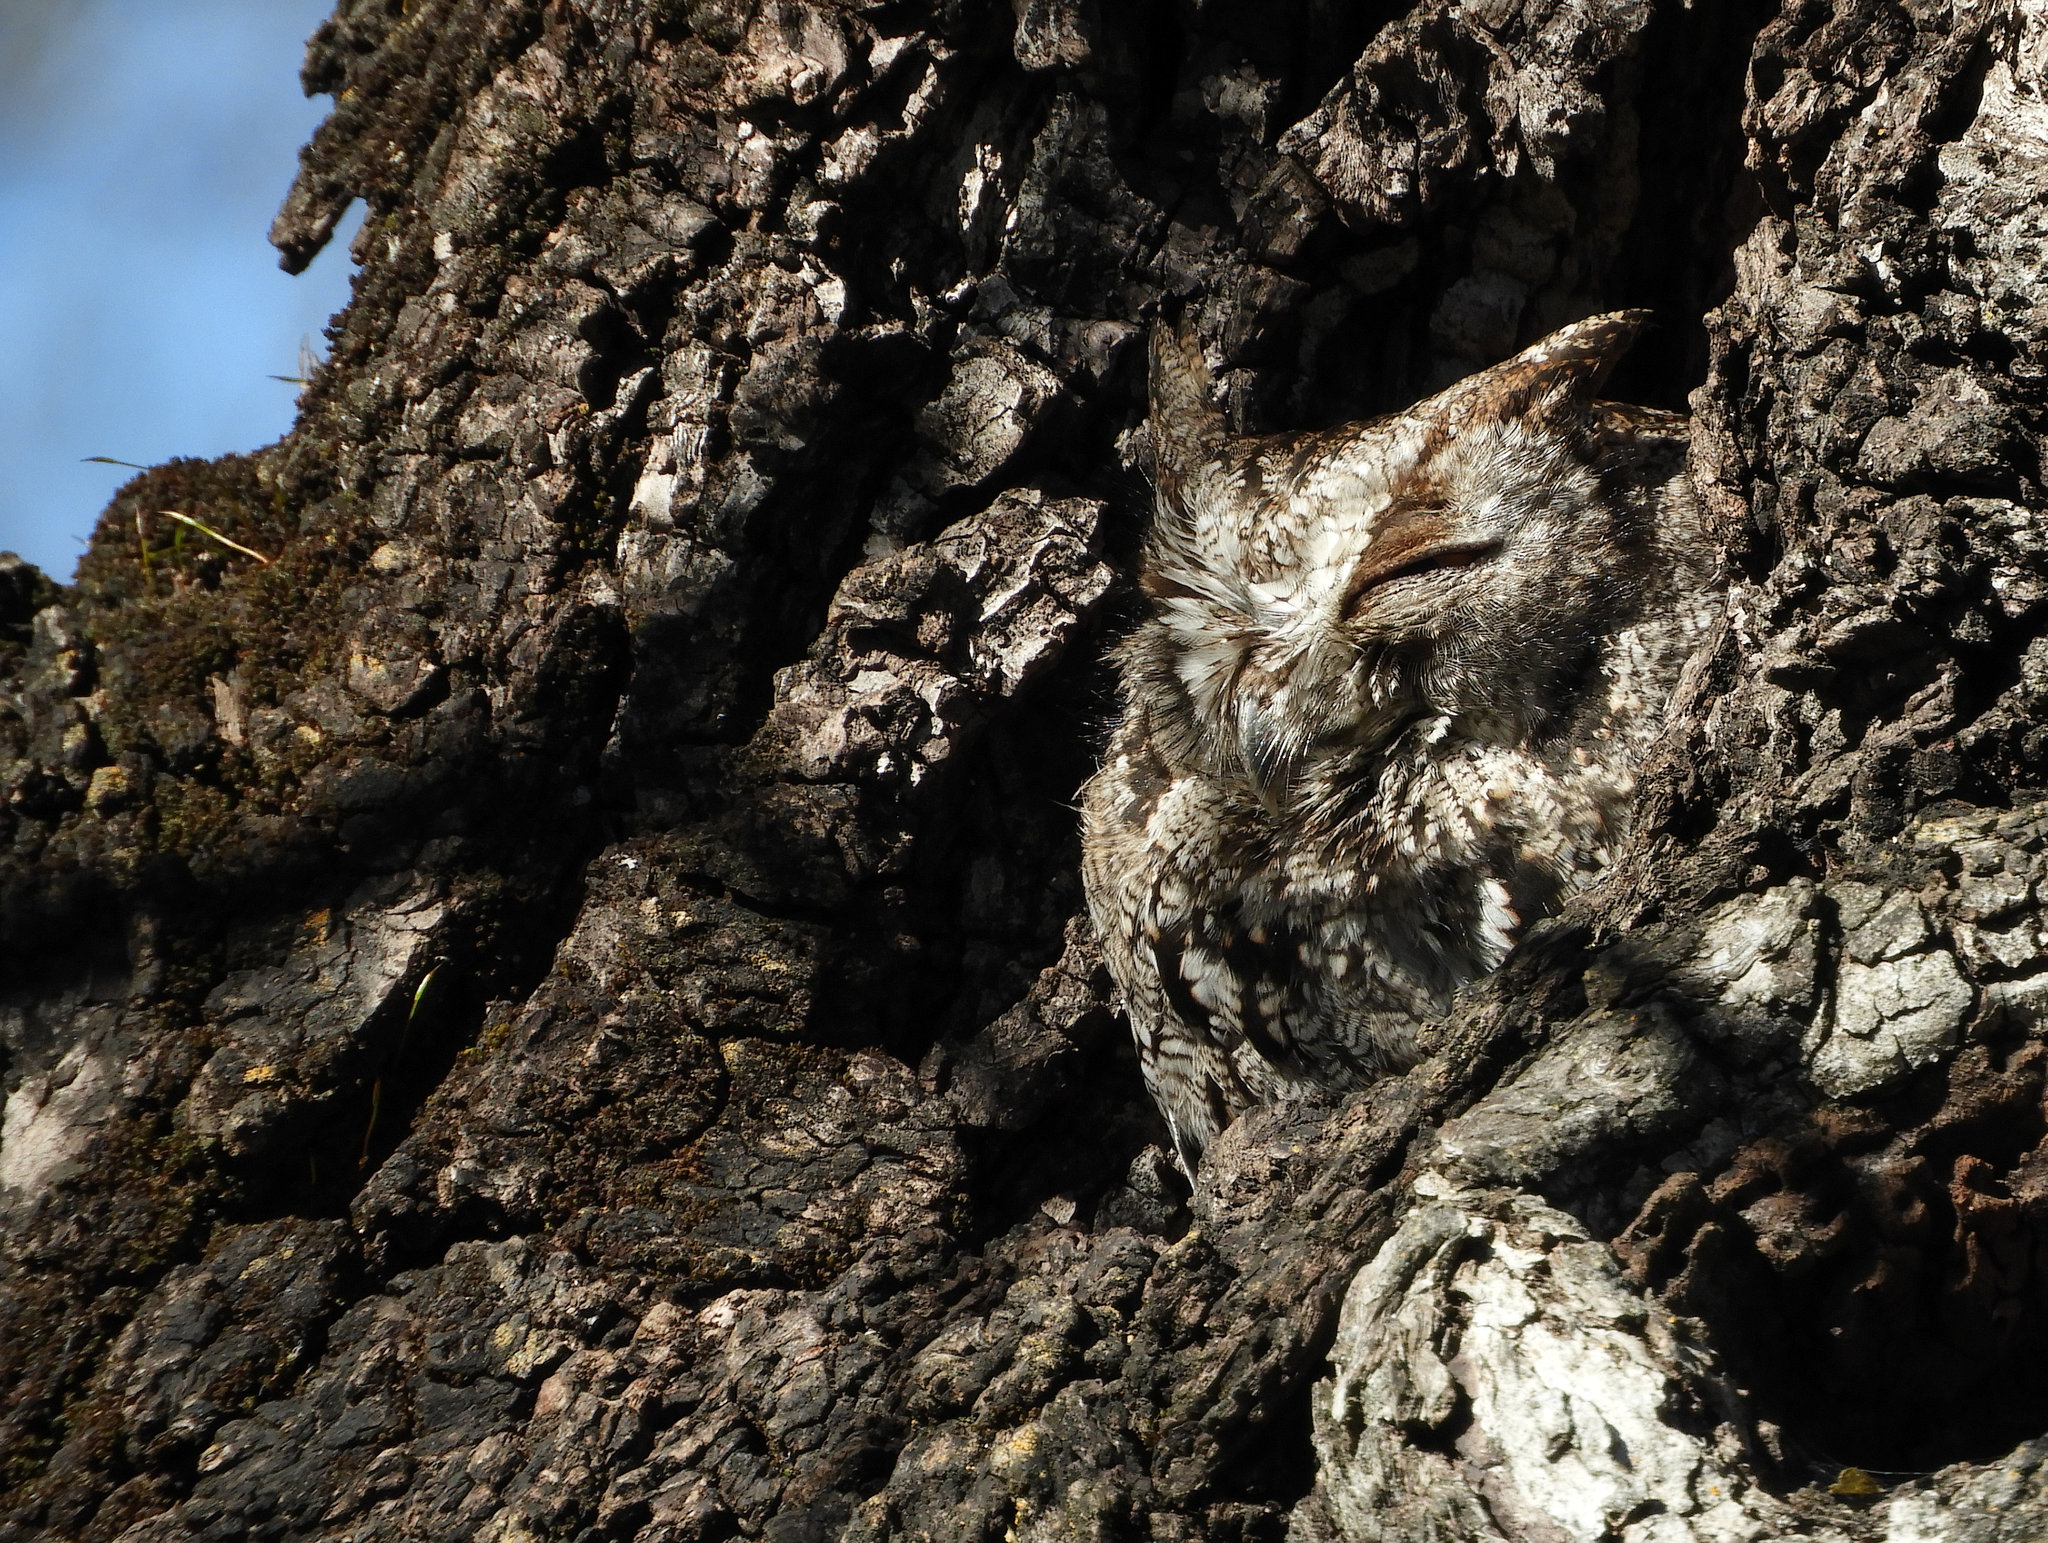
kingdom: Animalia
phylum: Chordata
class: Aves
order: Strigiformes
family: Strigidae
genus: Megascops
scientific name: Megascops kennicottii
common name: Western screech-owl
